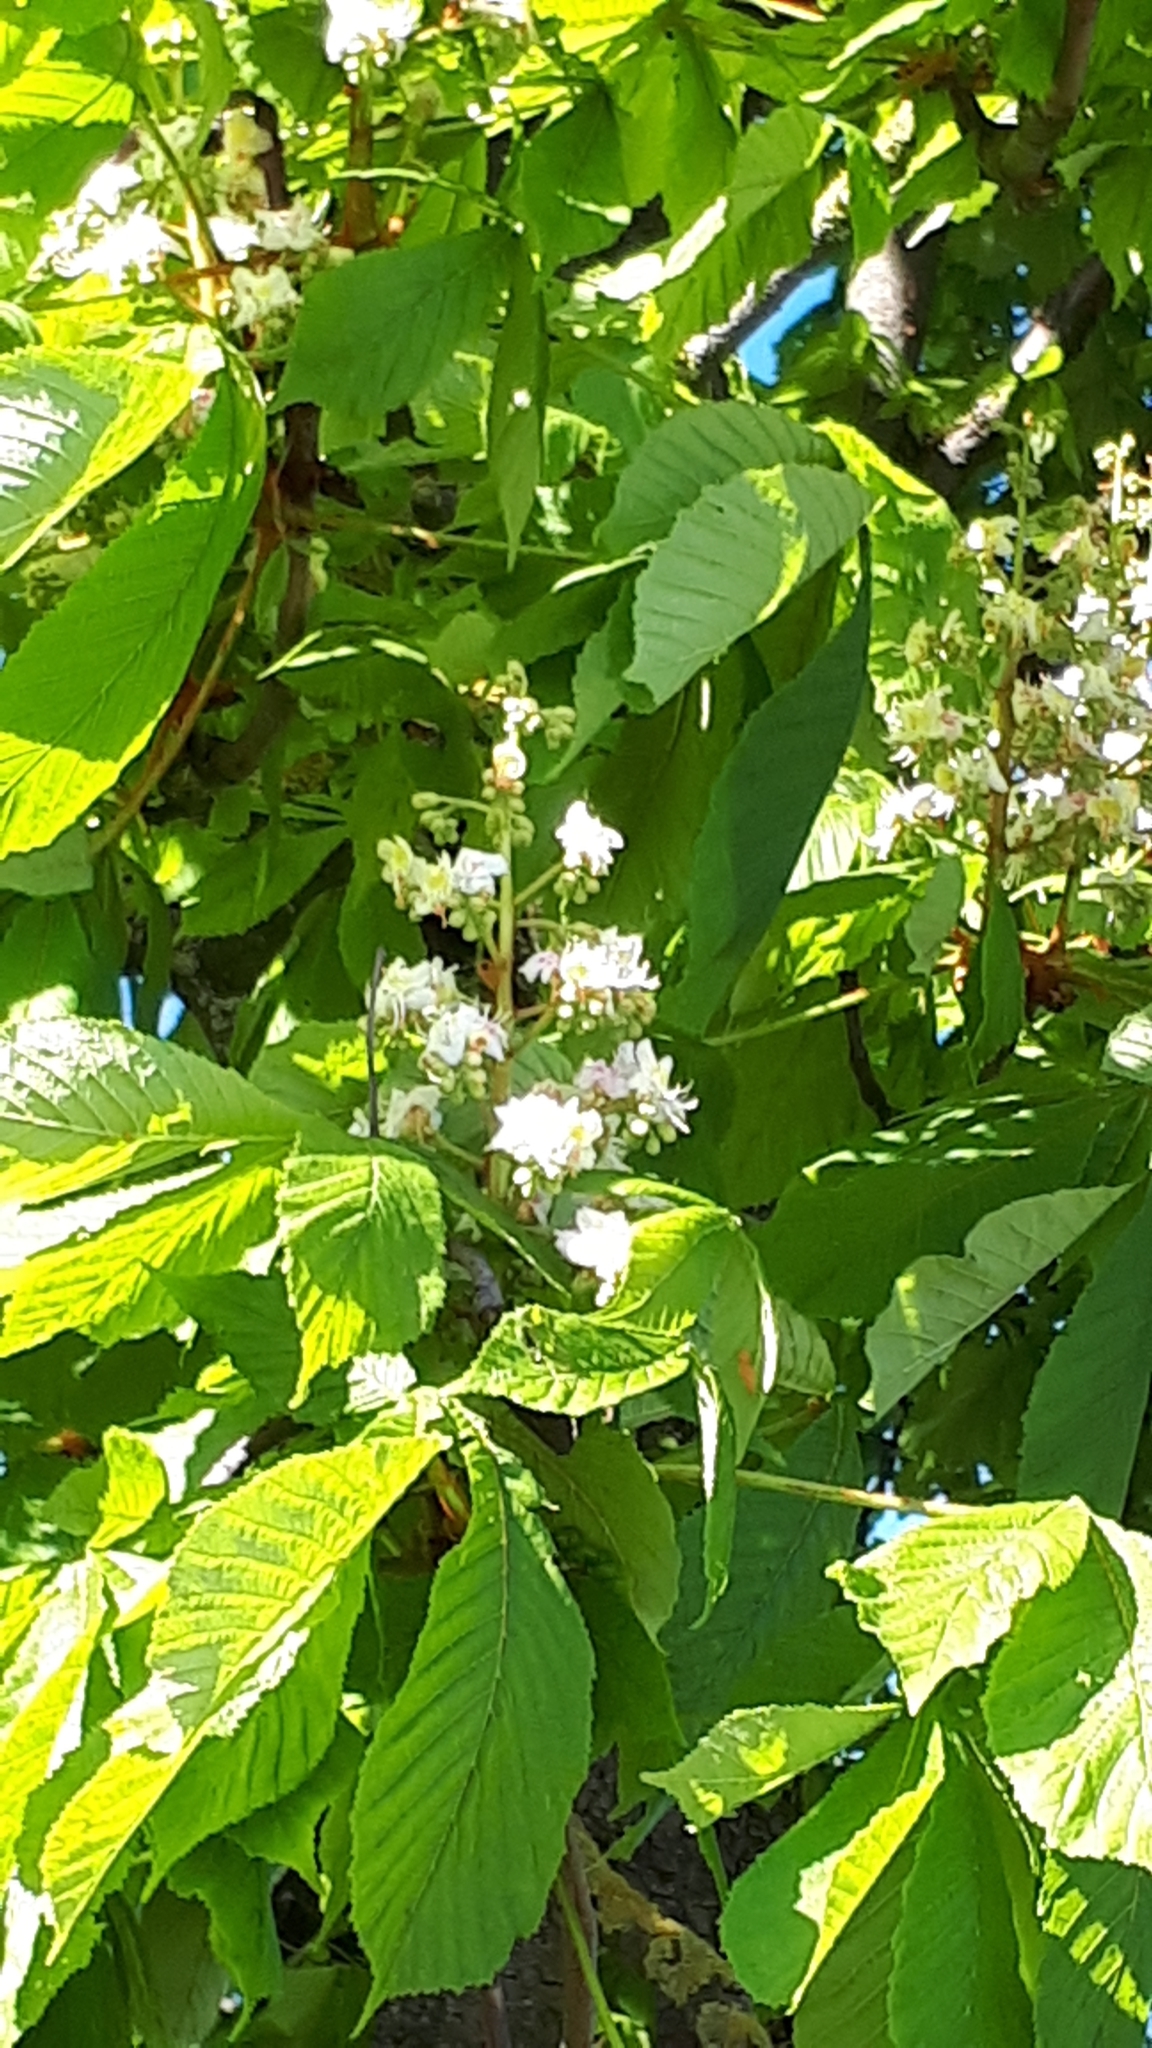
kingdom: Plantae
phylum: Tracheophyta
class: Magnoliopsida
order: Sapindales
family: Sapindaceae
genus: Aesculus
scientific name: Aesculus hippocastanum
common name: Horse-chestnut
